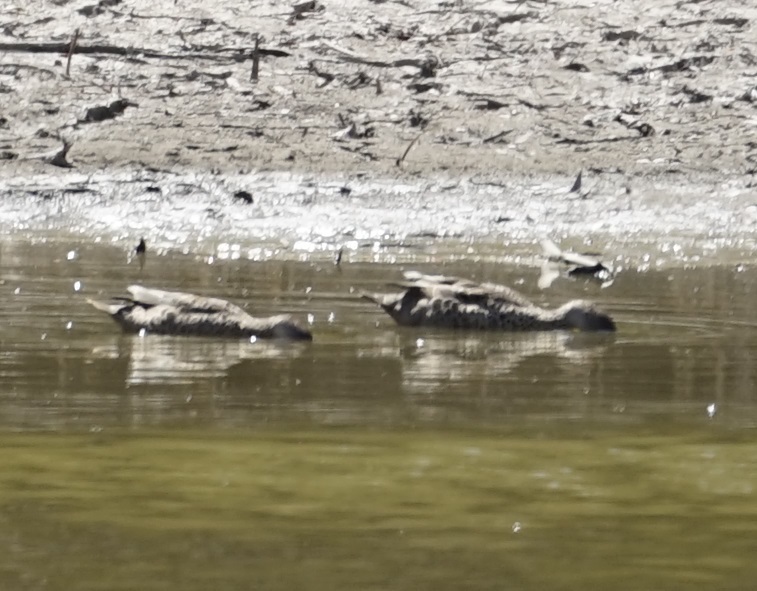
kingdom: Animalia
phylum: Chordata
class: Aves
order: Anseriformes
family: Anatidae
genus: Anas
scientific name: Anas gracilis
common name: Grey teal
